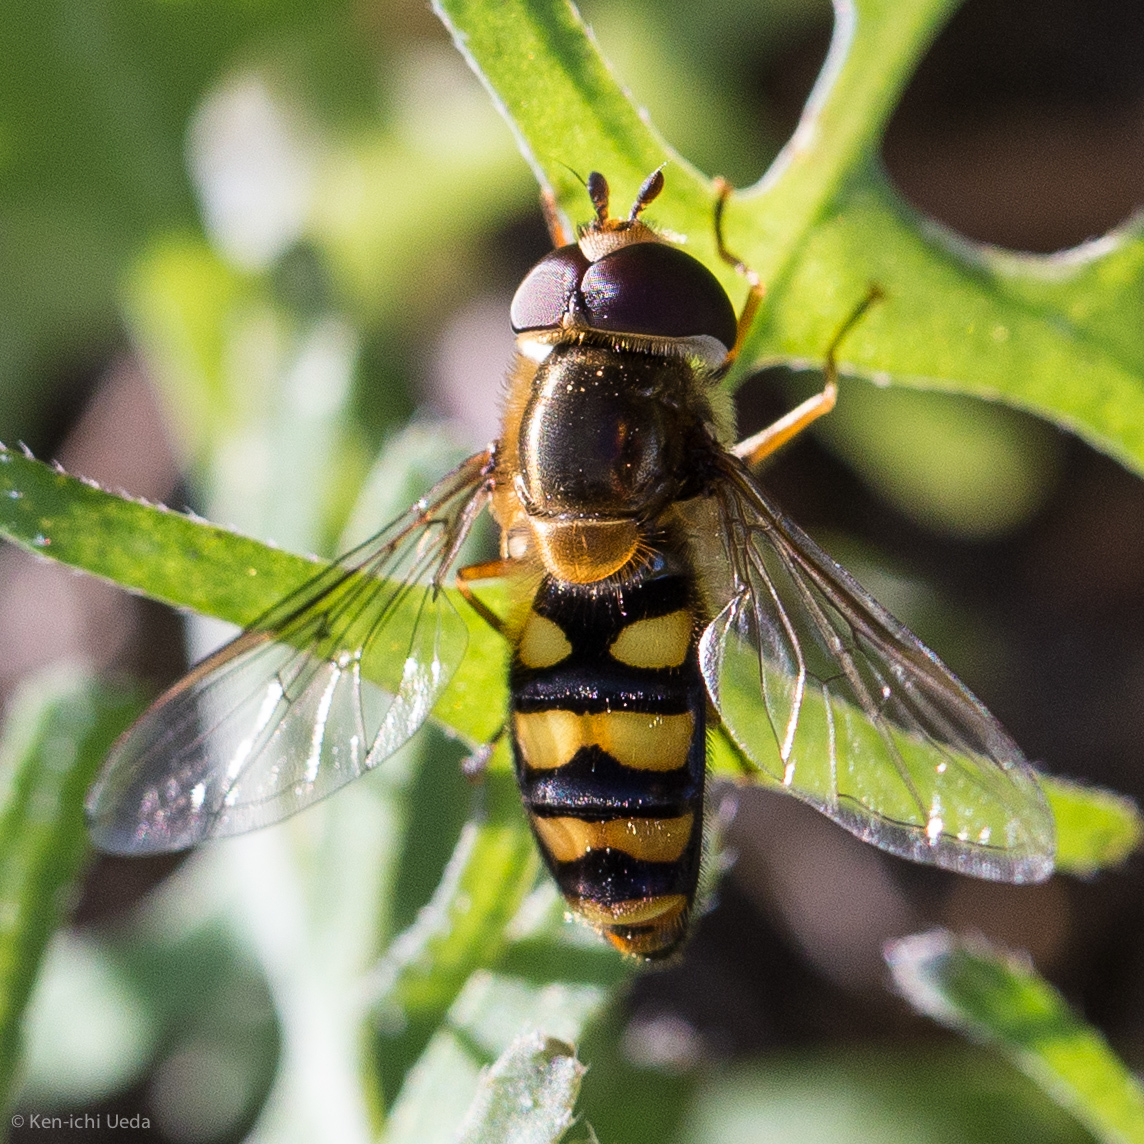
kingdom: Animalia
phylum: Arthropoda
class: Insecta
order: Diptera
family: Syrphidae
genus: Eupeodes
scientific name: Eupeodes fumipennis
